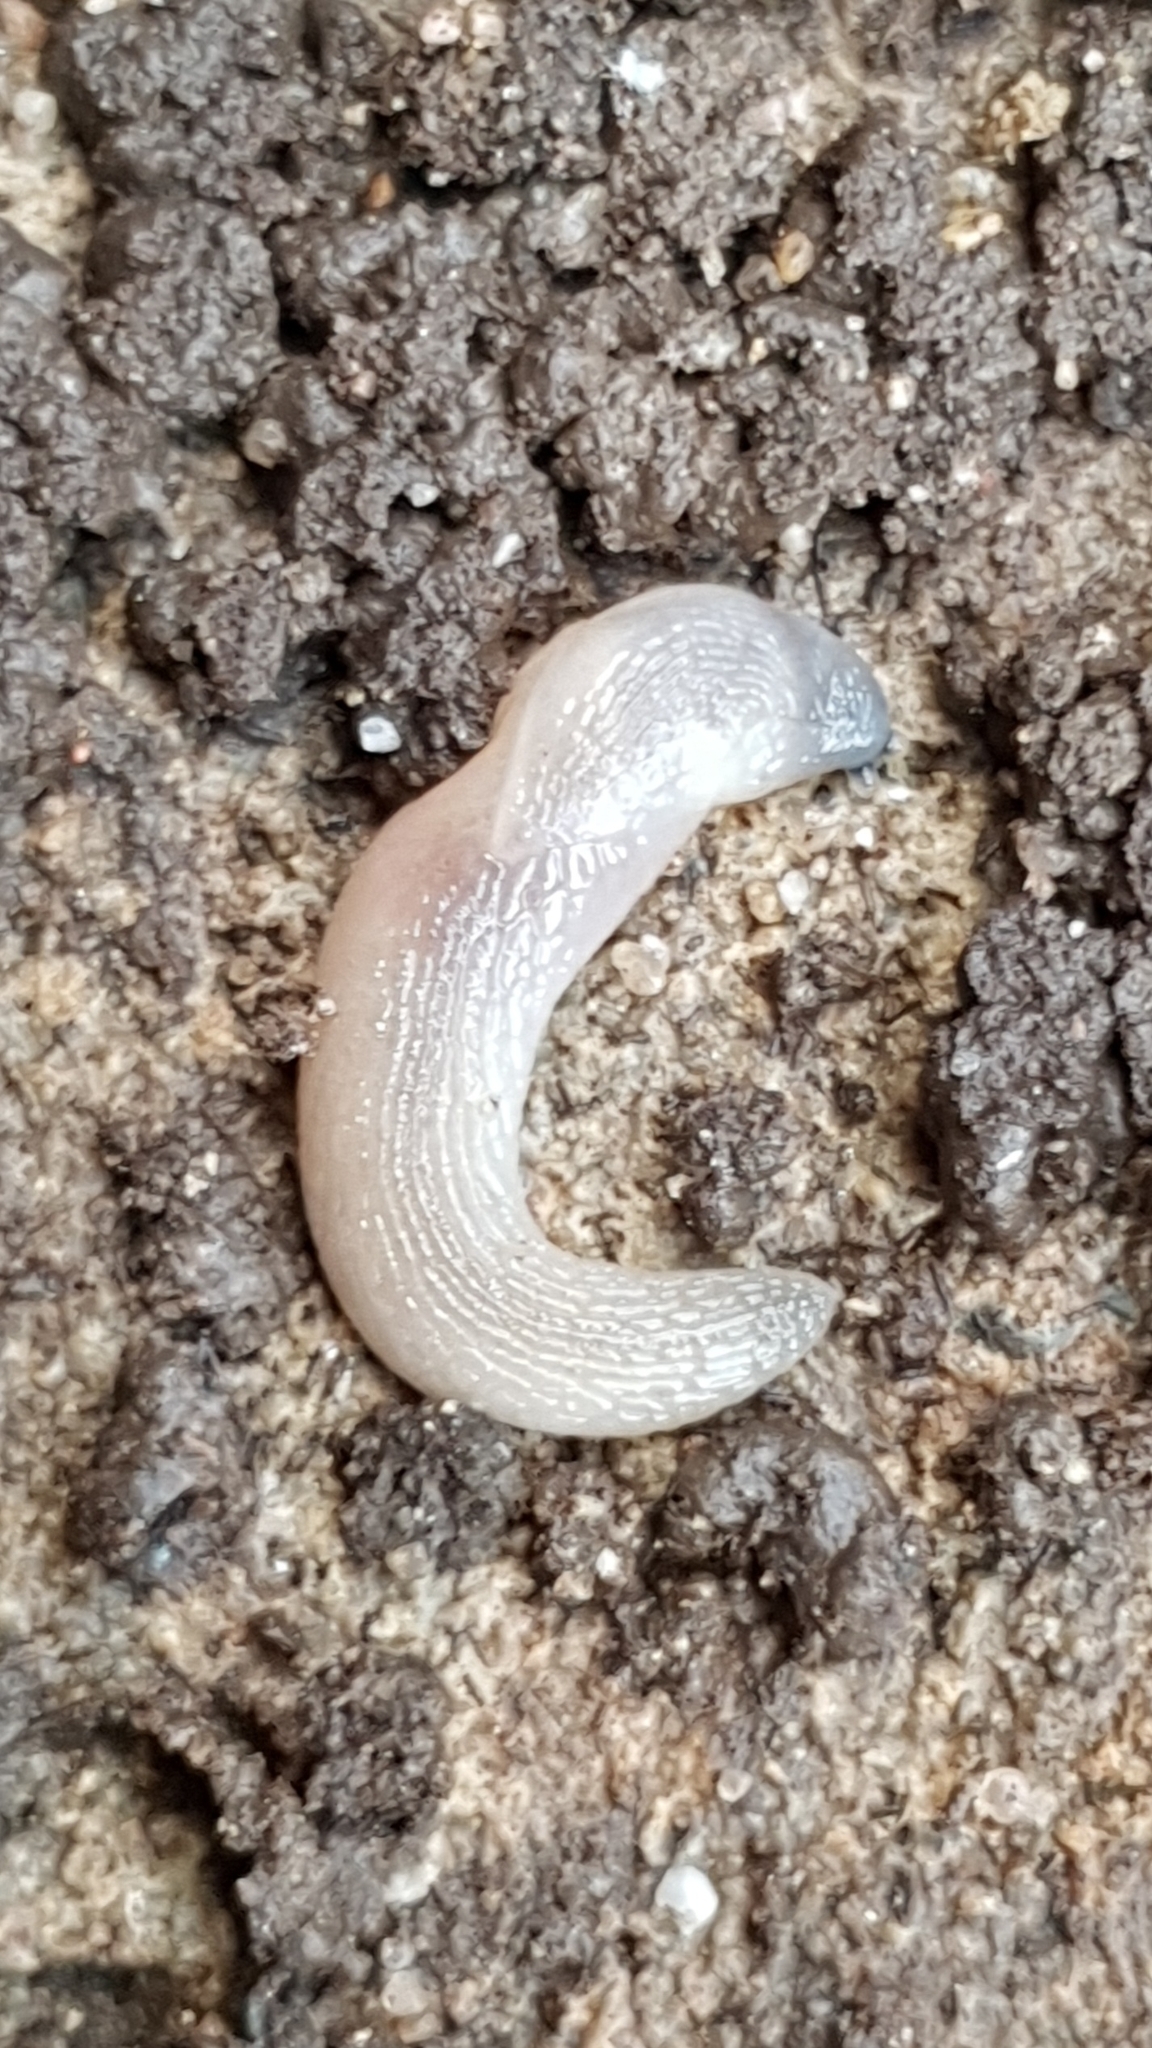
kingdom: Animalia
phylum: Mollusca
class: Gastropoda
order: Stylommatophora
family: Boettgerillidae
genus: Boettgerilla
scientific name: Boettgerilla pallens
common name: Worm slug
